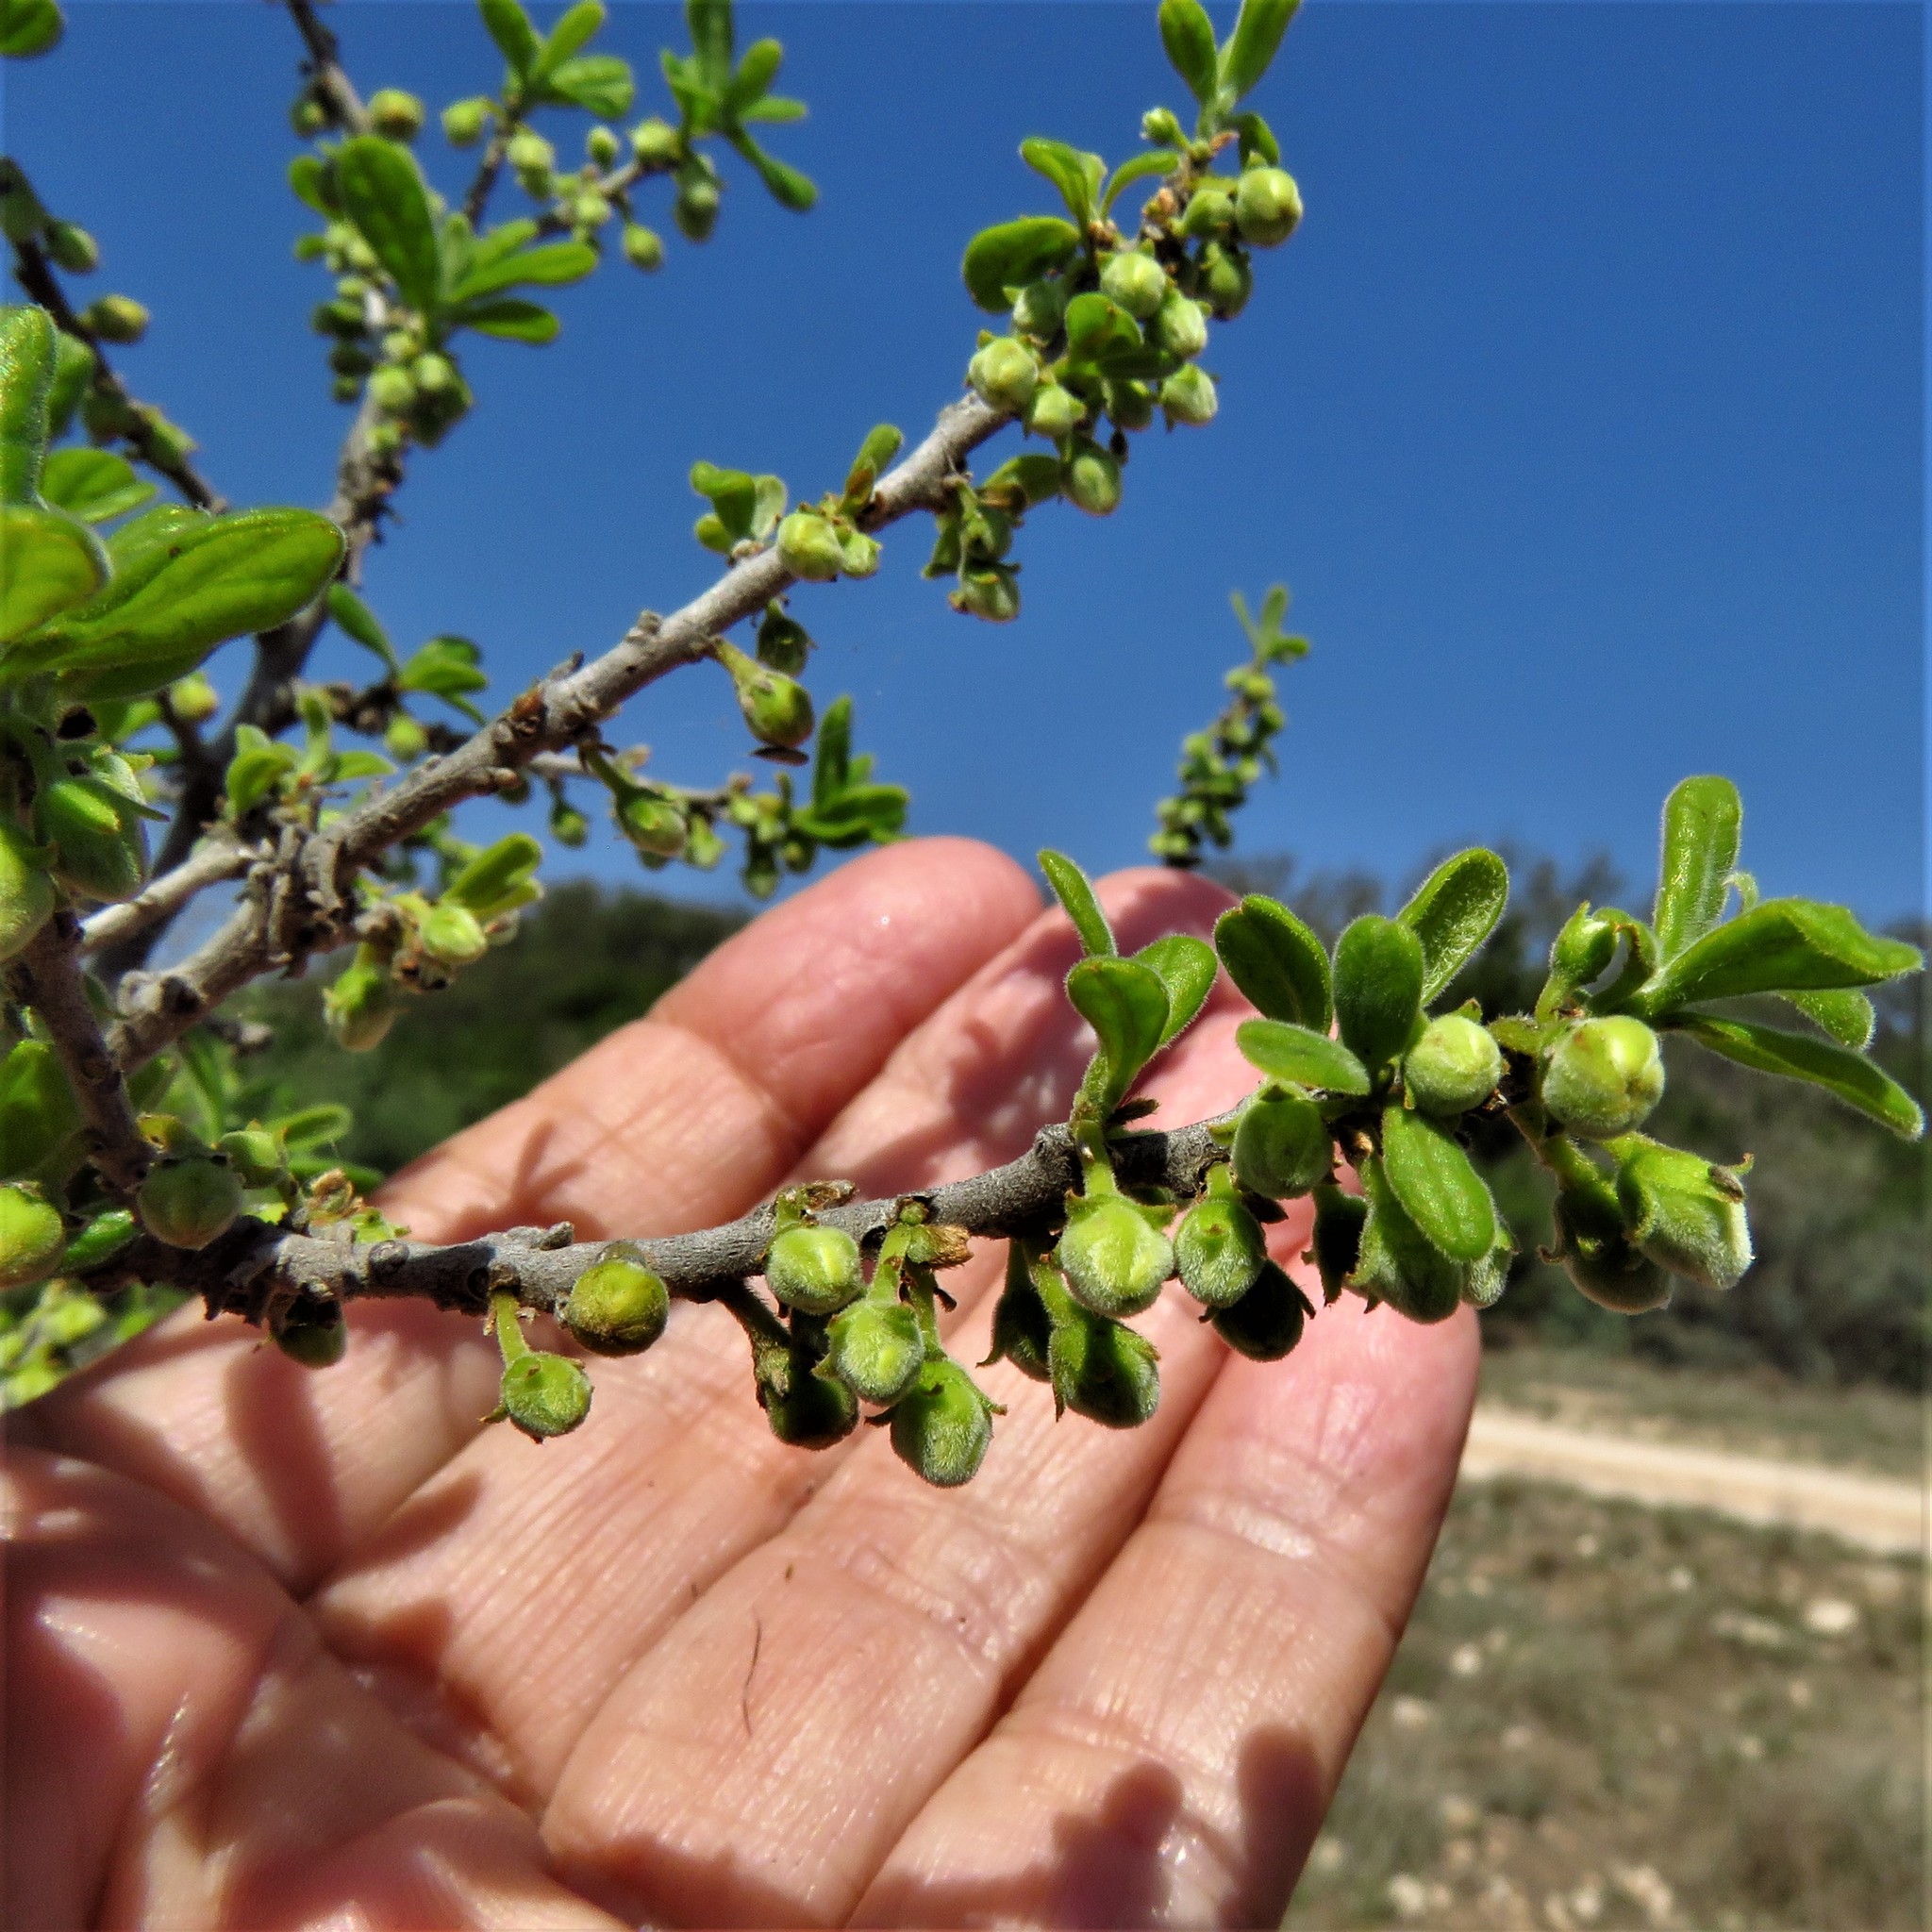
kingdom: Plantae
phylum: Tracheophyta
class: Magnoliopsida
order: Ericales
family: Ebenaceae
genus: Diospyros
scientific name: Diospyros texana
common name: Texas persimmon
